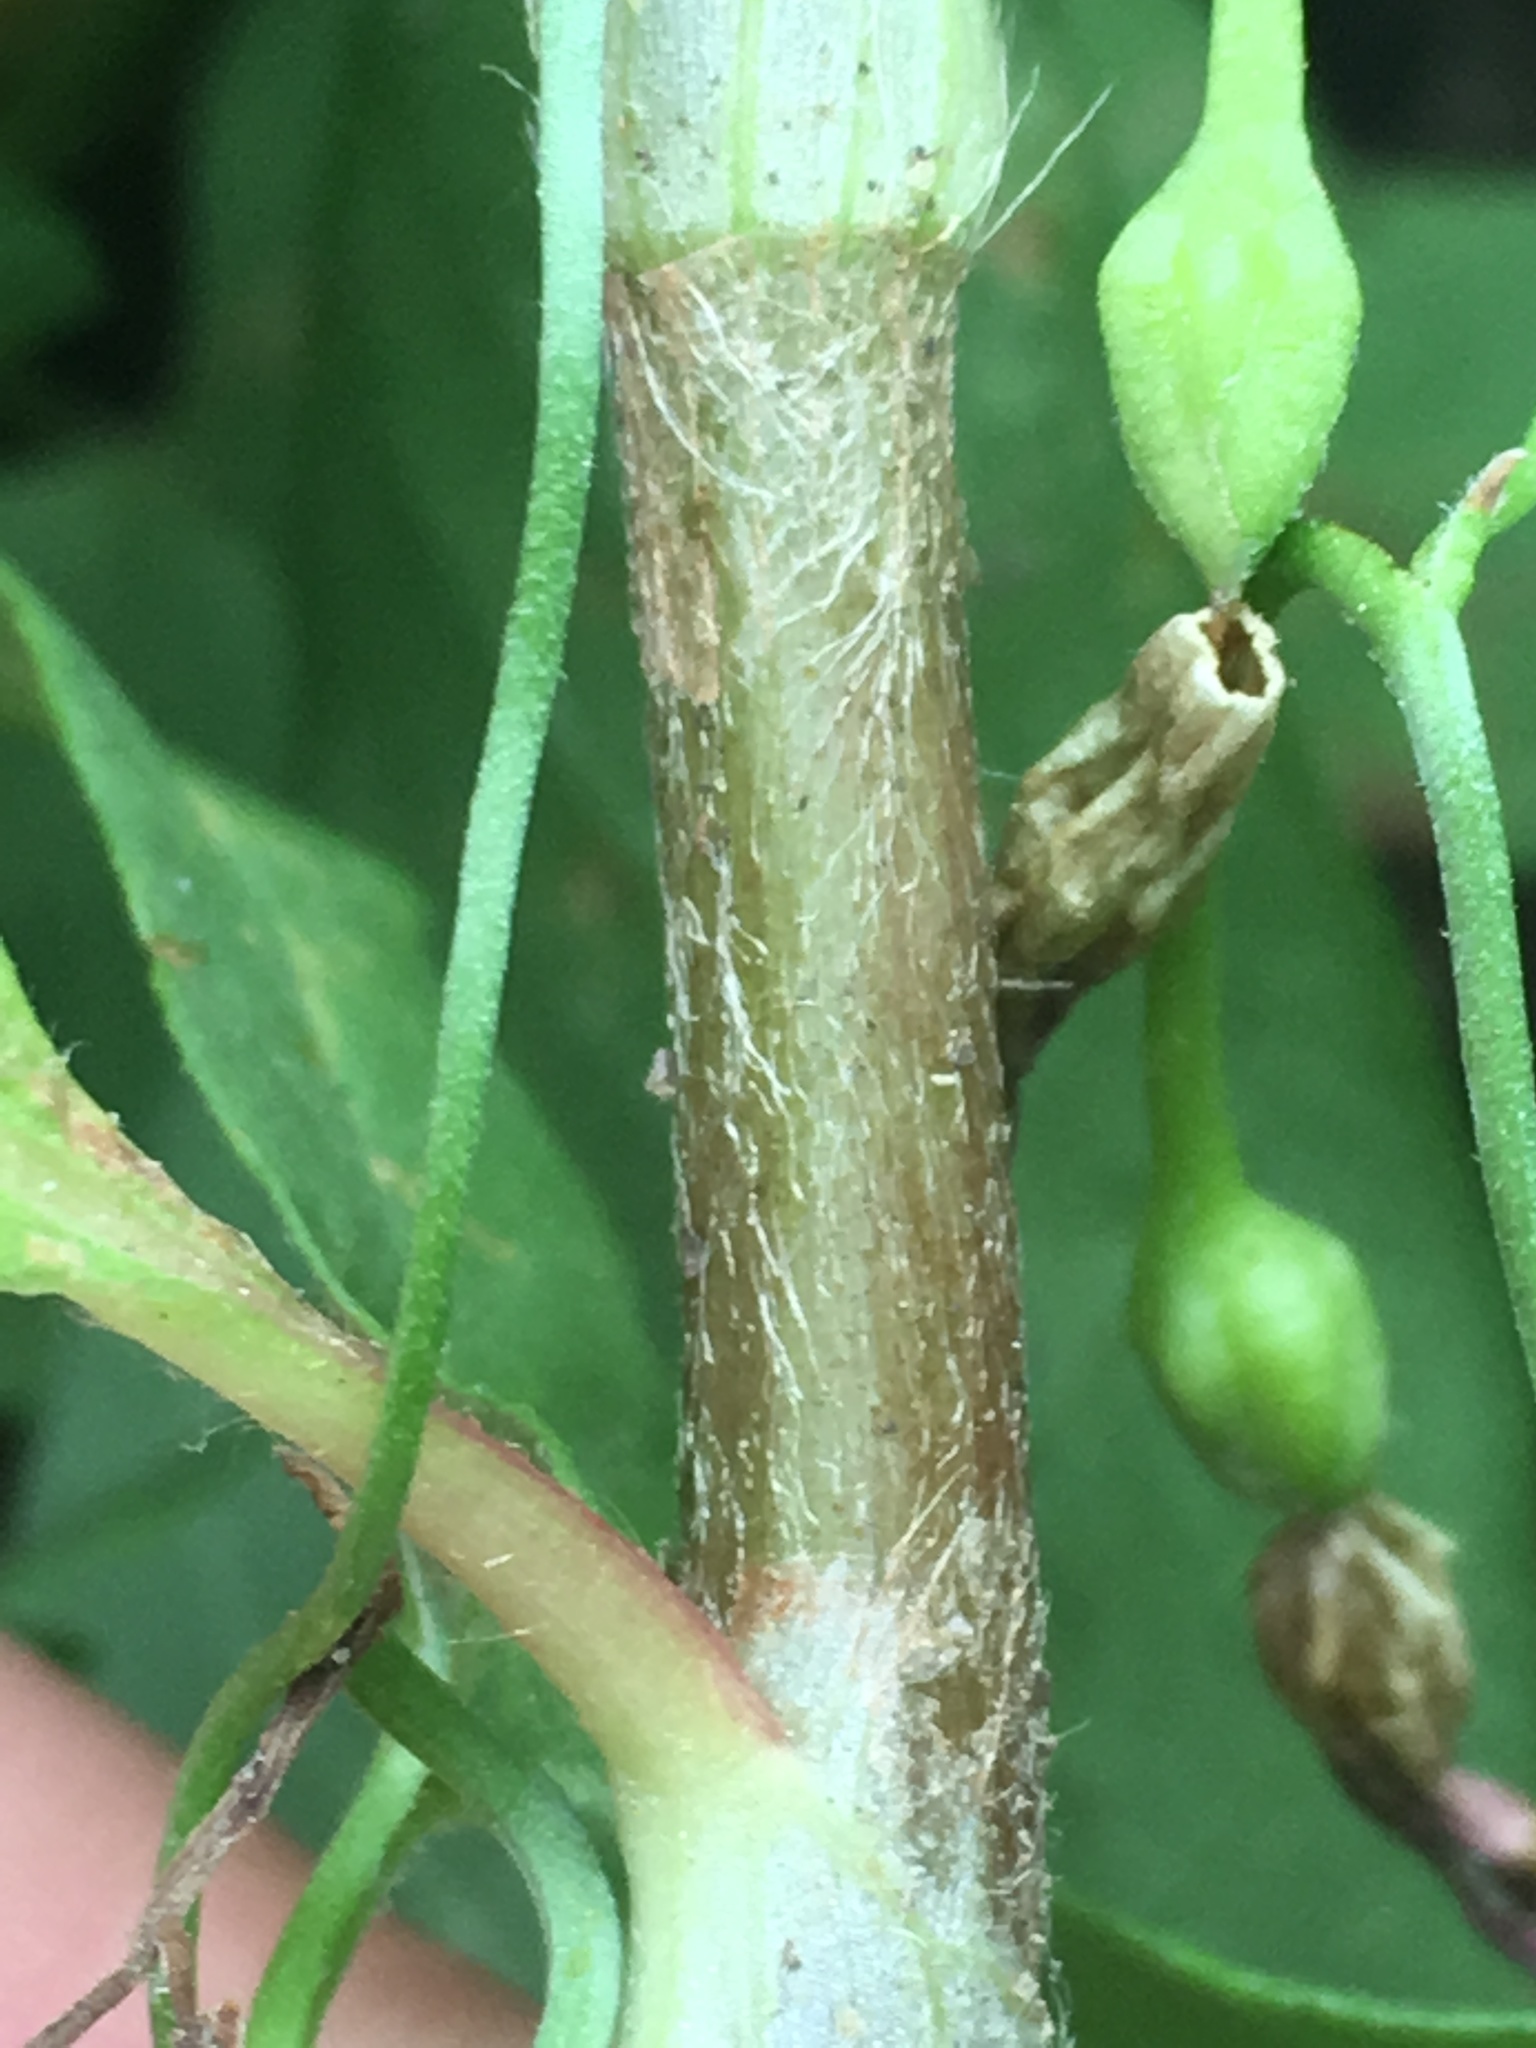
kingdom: Plantae
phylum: Tracheophyta
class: Magnoliopsida
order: Caryophyllales
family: Polygonaceae
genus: Persicaria
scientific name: Persicaria extremiorientalis
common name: Far-eastern smartweed
